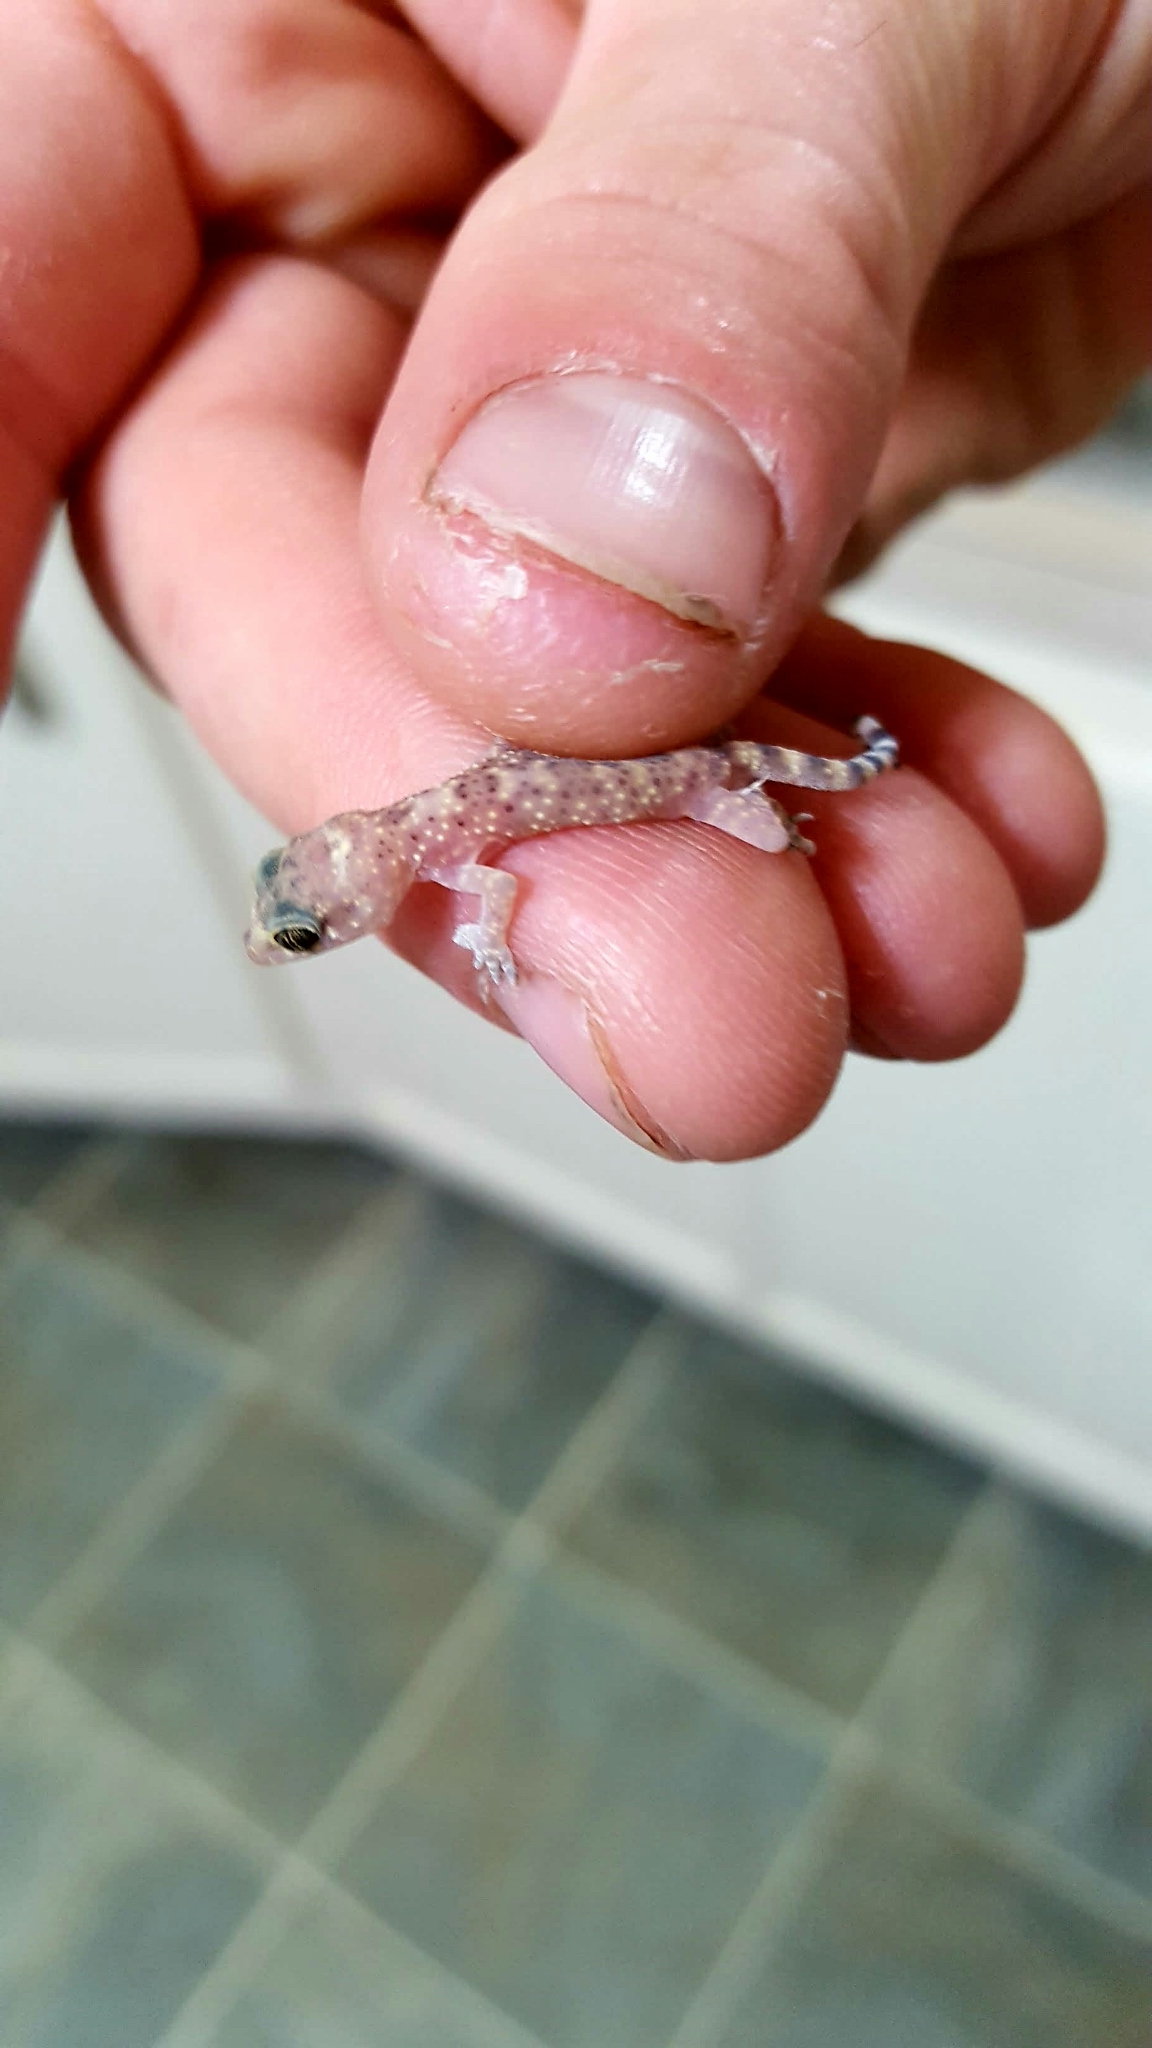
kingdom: Animalia
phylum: Chordata
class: Squamata
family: Gekkonidae
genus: Hemidactylus
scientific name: Hemidactylus turcicus
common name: Turkish gecko
